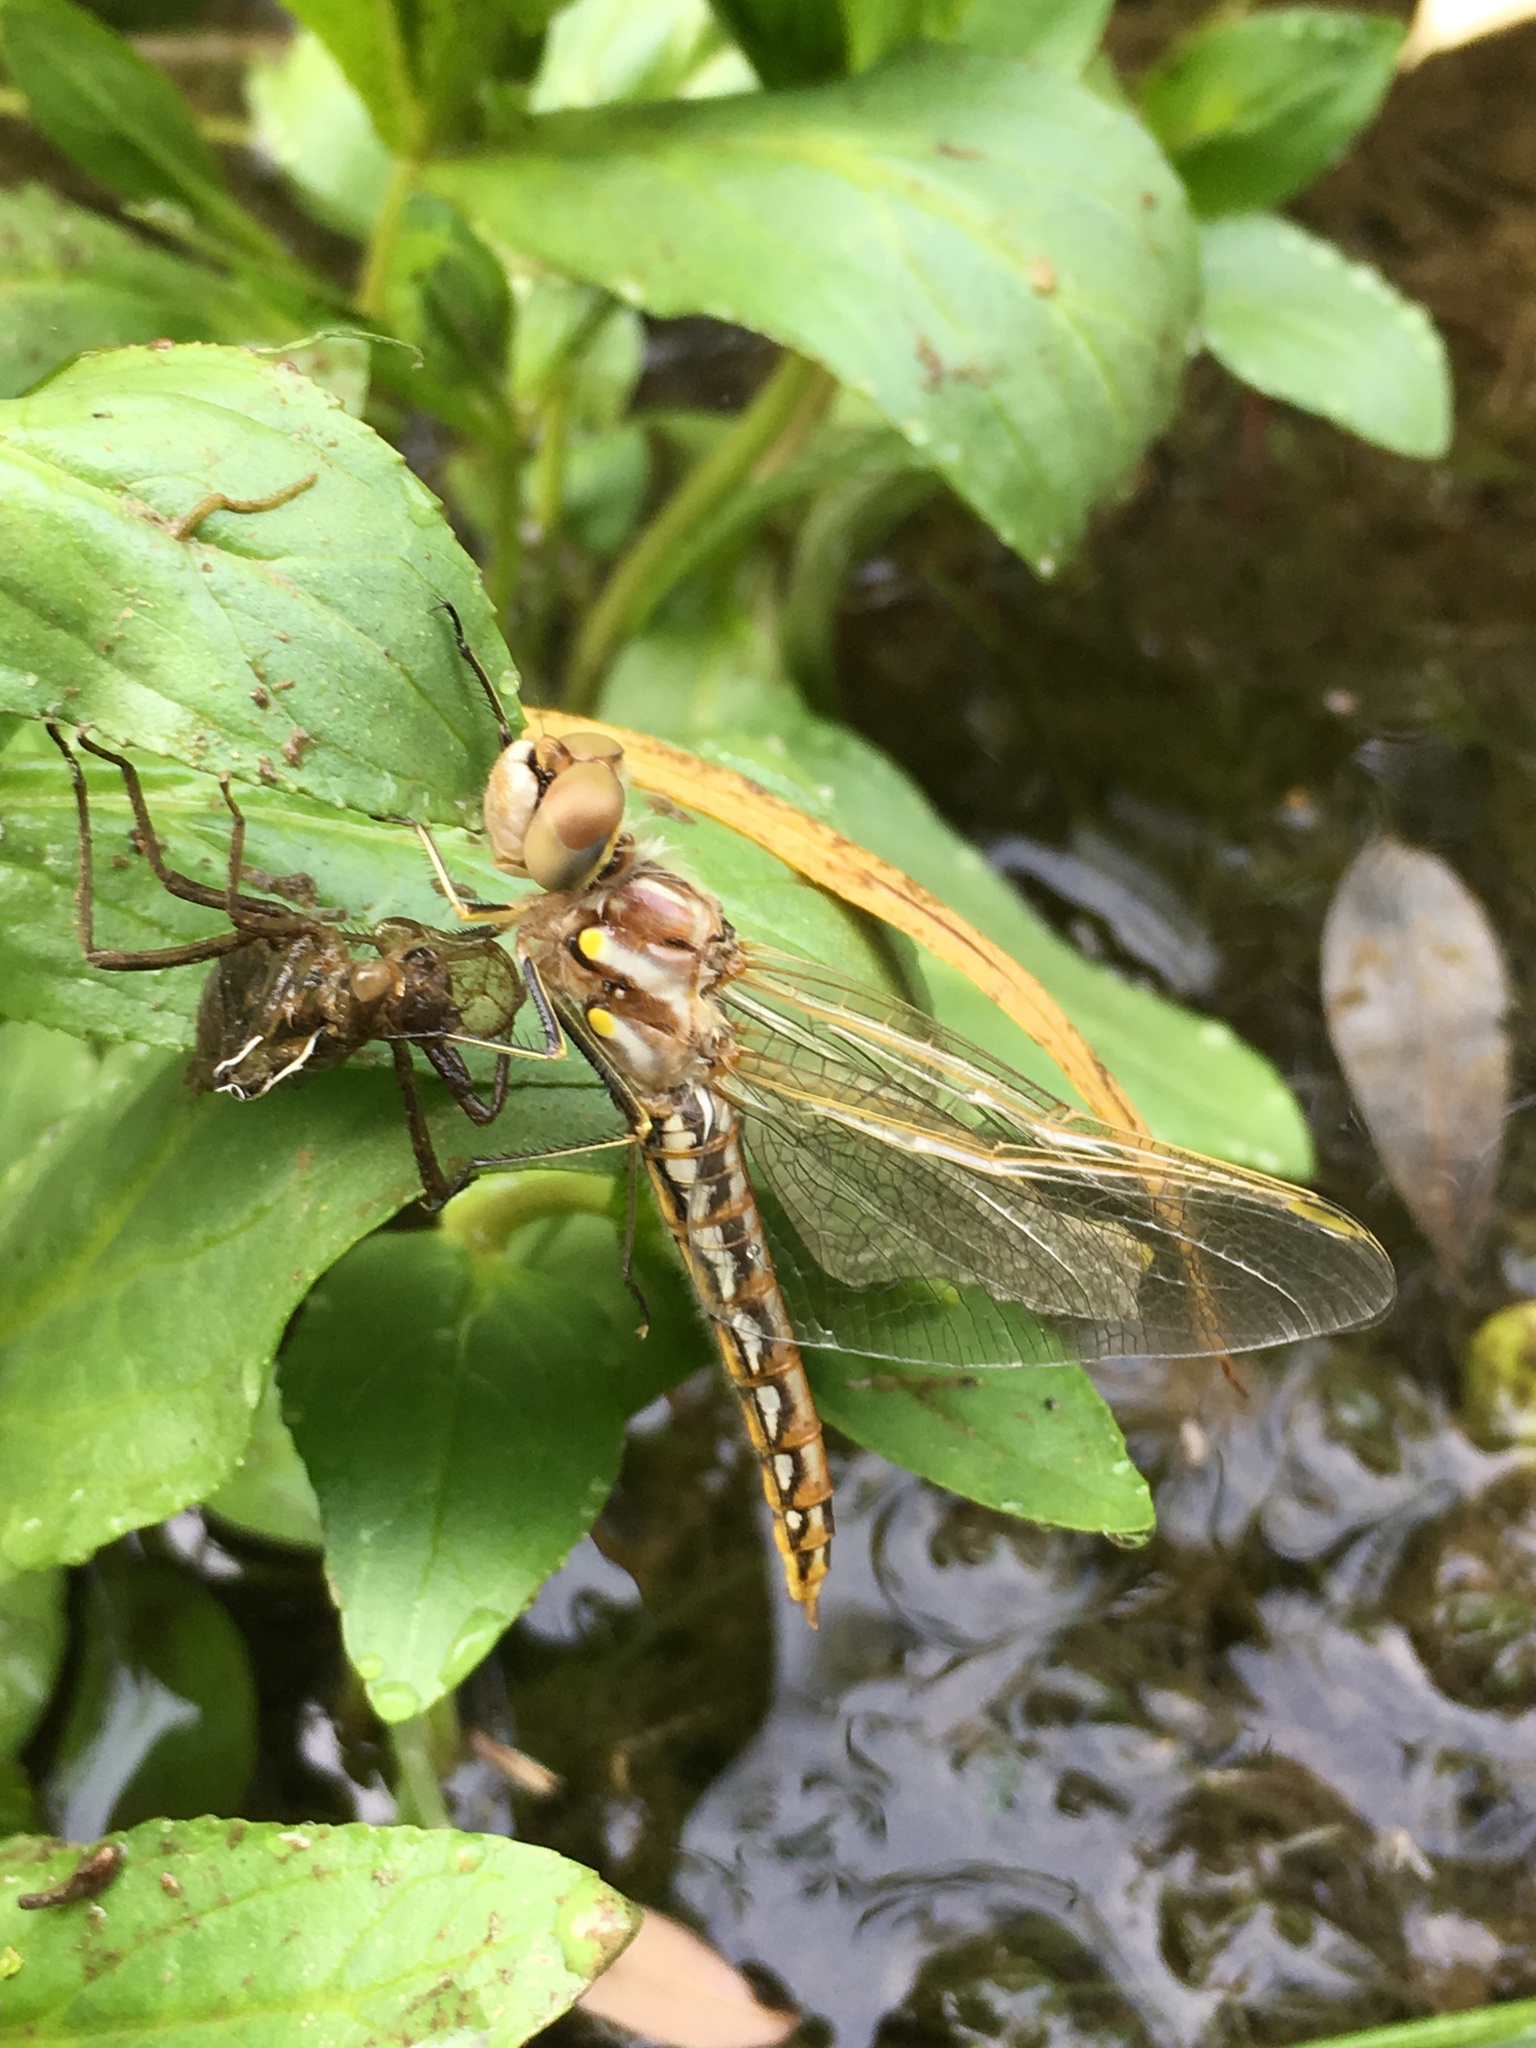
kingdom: Animalia
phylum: Arthropoda
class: Insecta
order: Odonata
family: Libellulidae
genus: Sympetrum
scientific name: Sympetrum corruptum
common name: Variegated meadowhawk
